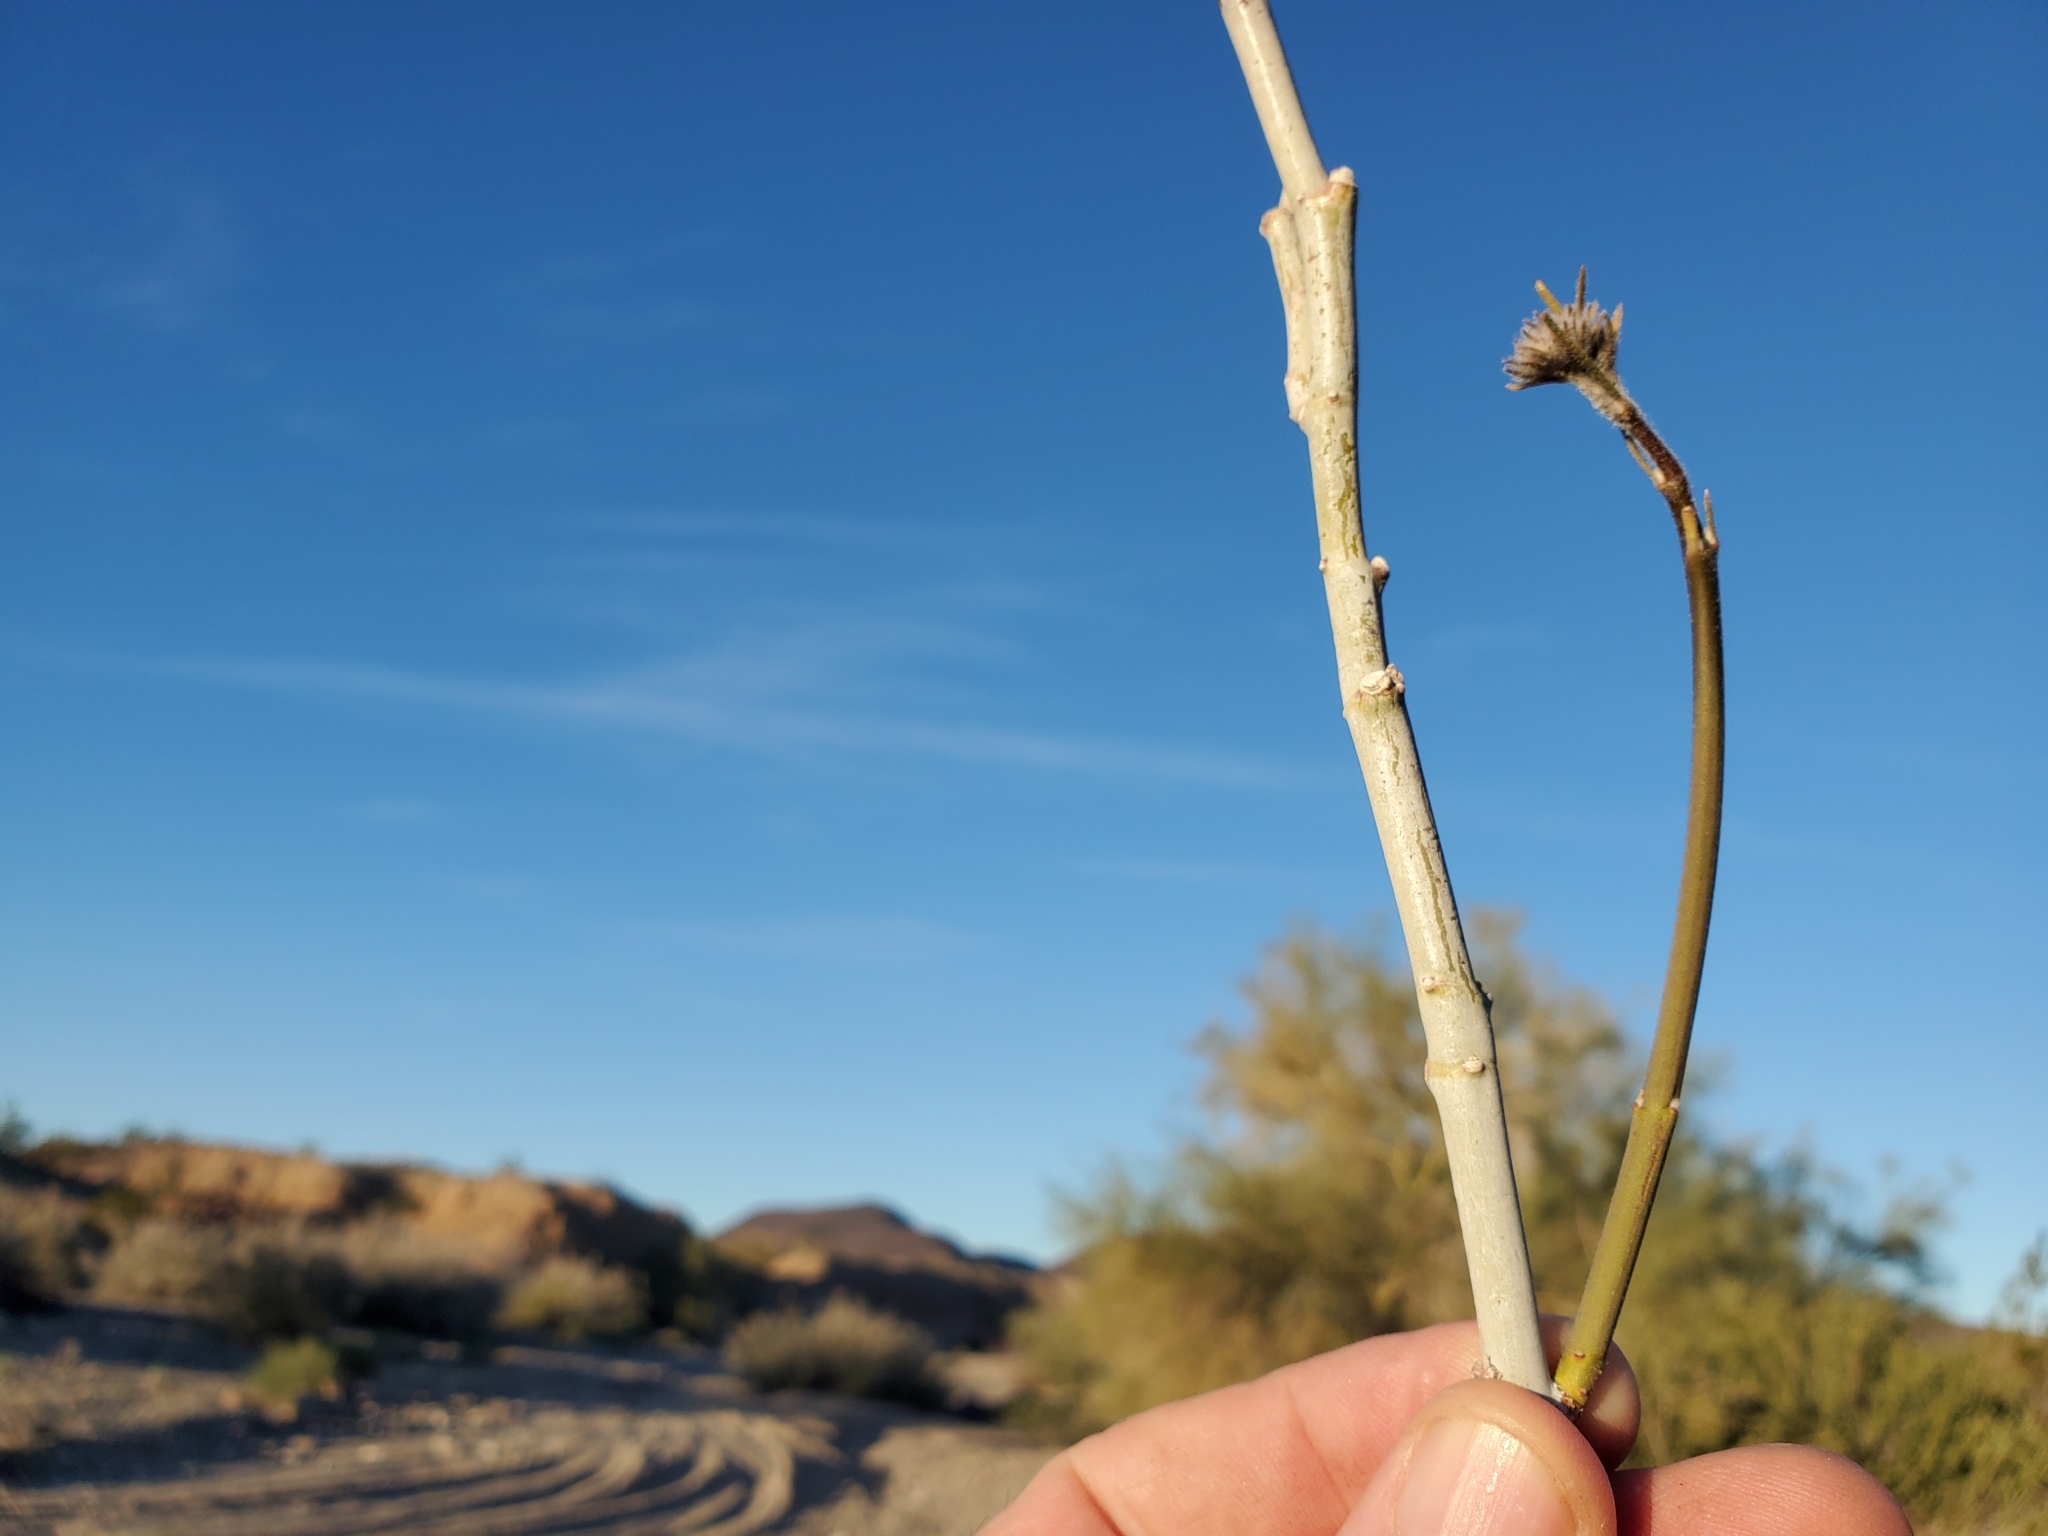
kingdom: Plantae
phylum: Tracheophyta
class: Magnoliopsida
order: Gentianales
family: Apocynaceae
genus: Asclepias
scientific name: Asclepias albicans
